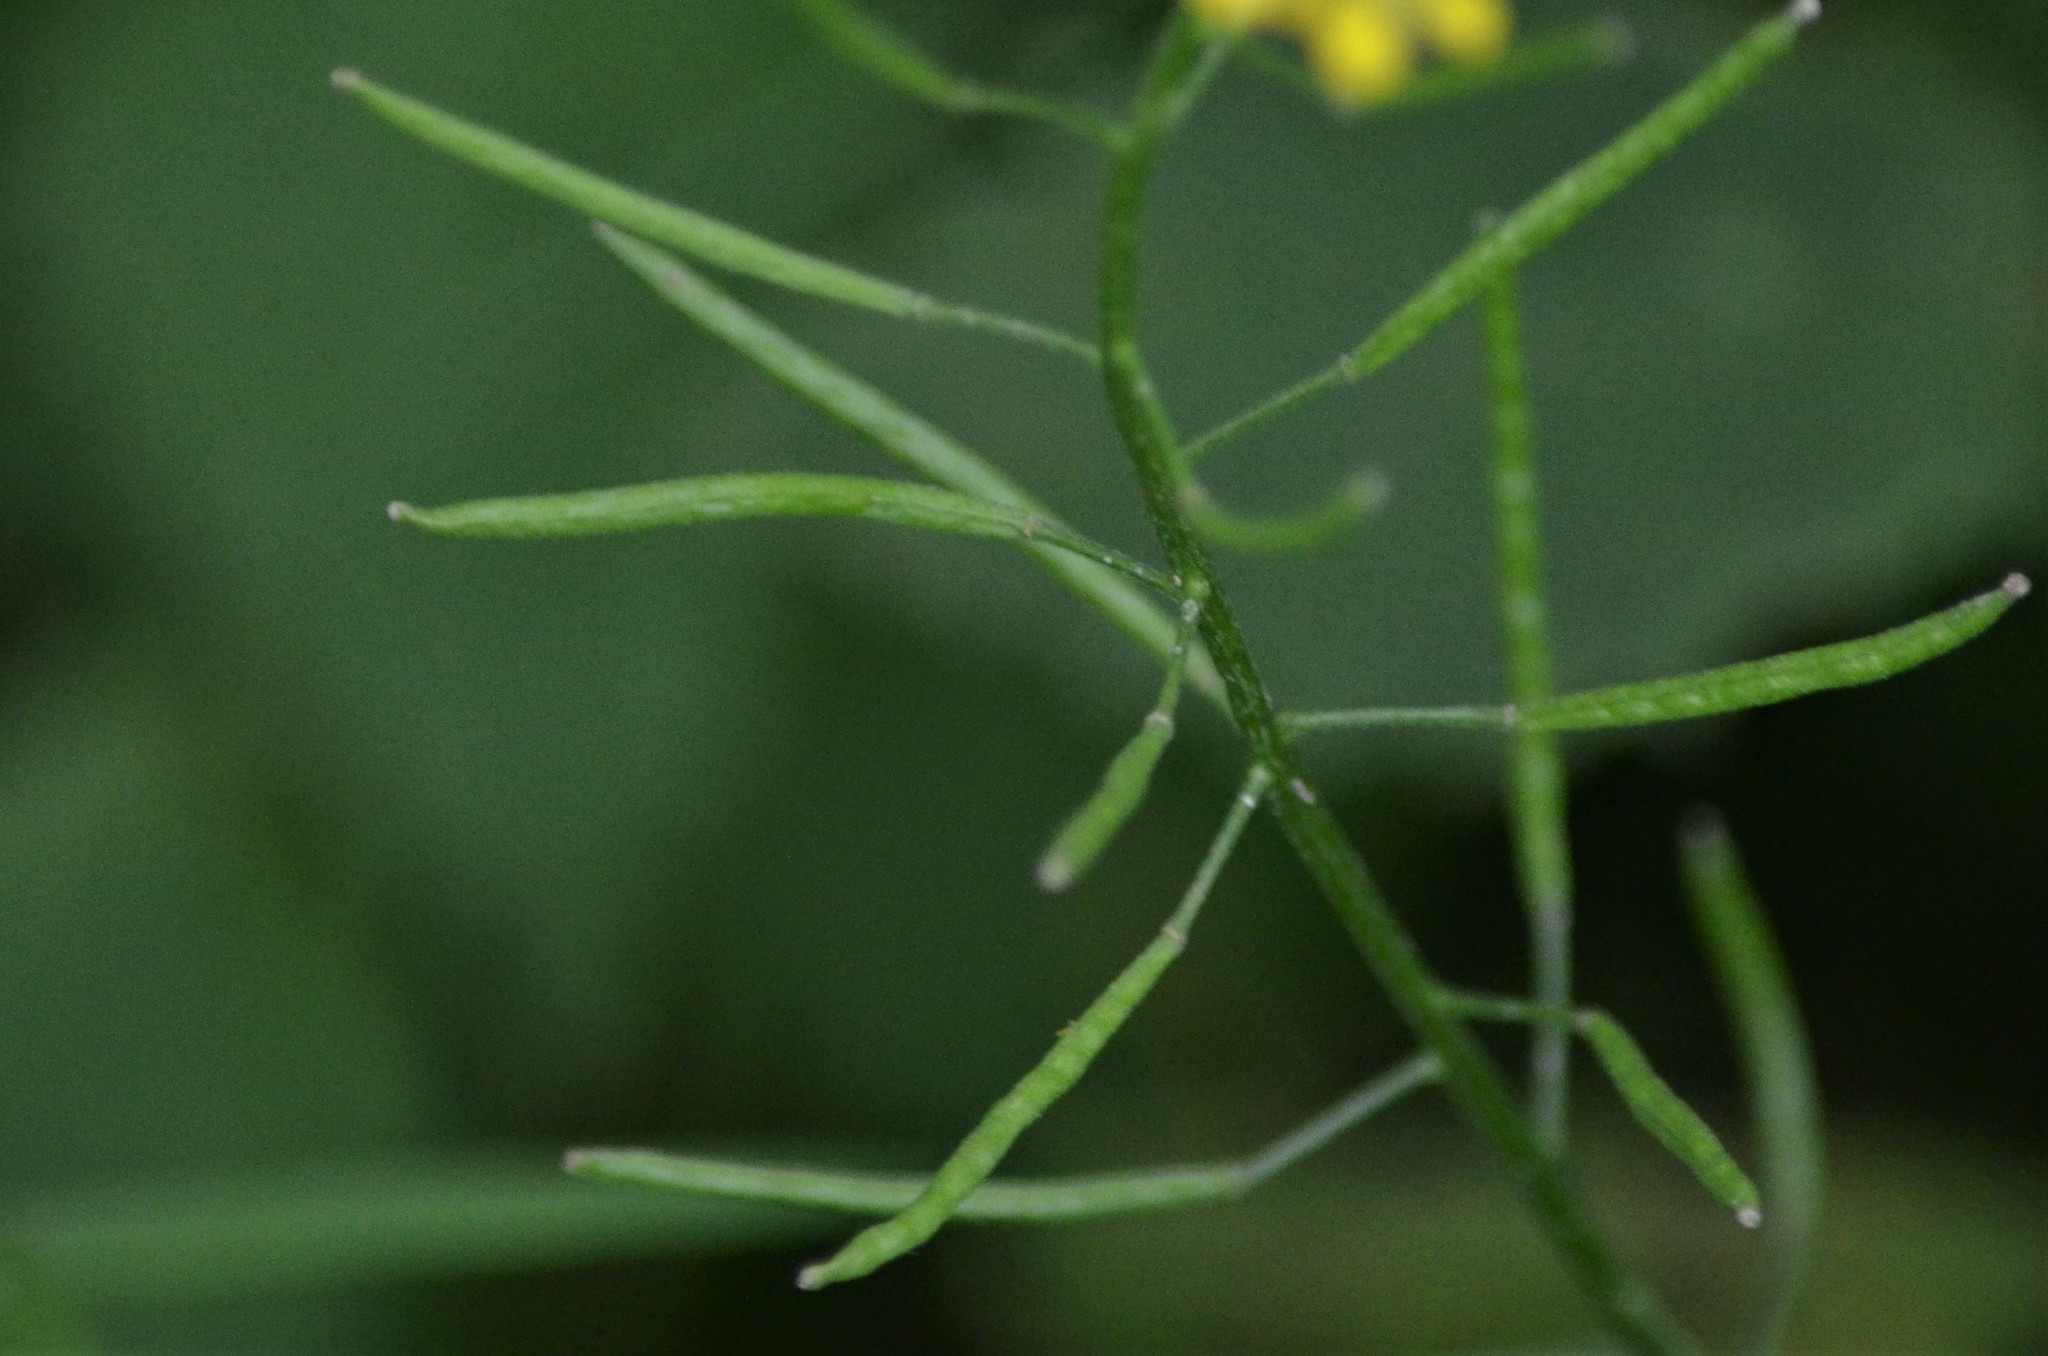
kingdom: Plantae
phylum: Tracheophyta
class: Magnoliopsida
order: Brassicales
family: Brassicaceae
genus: Erysimum
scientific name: Erysimum cheiranthoides
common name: Treacle mustard
